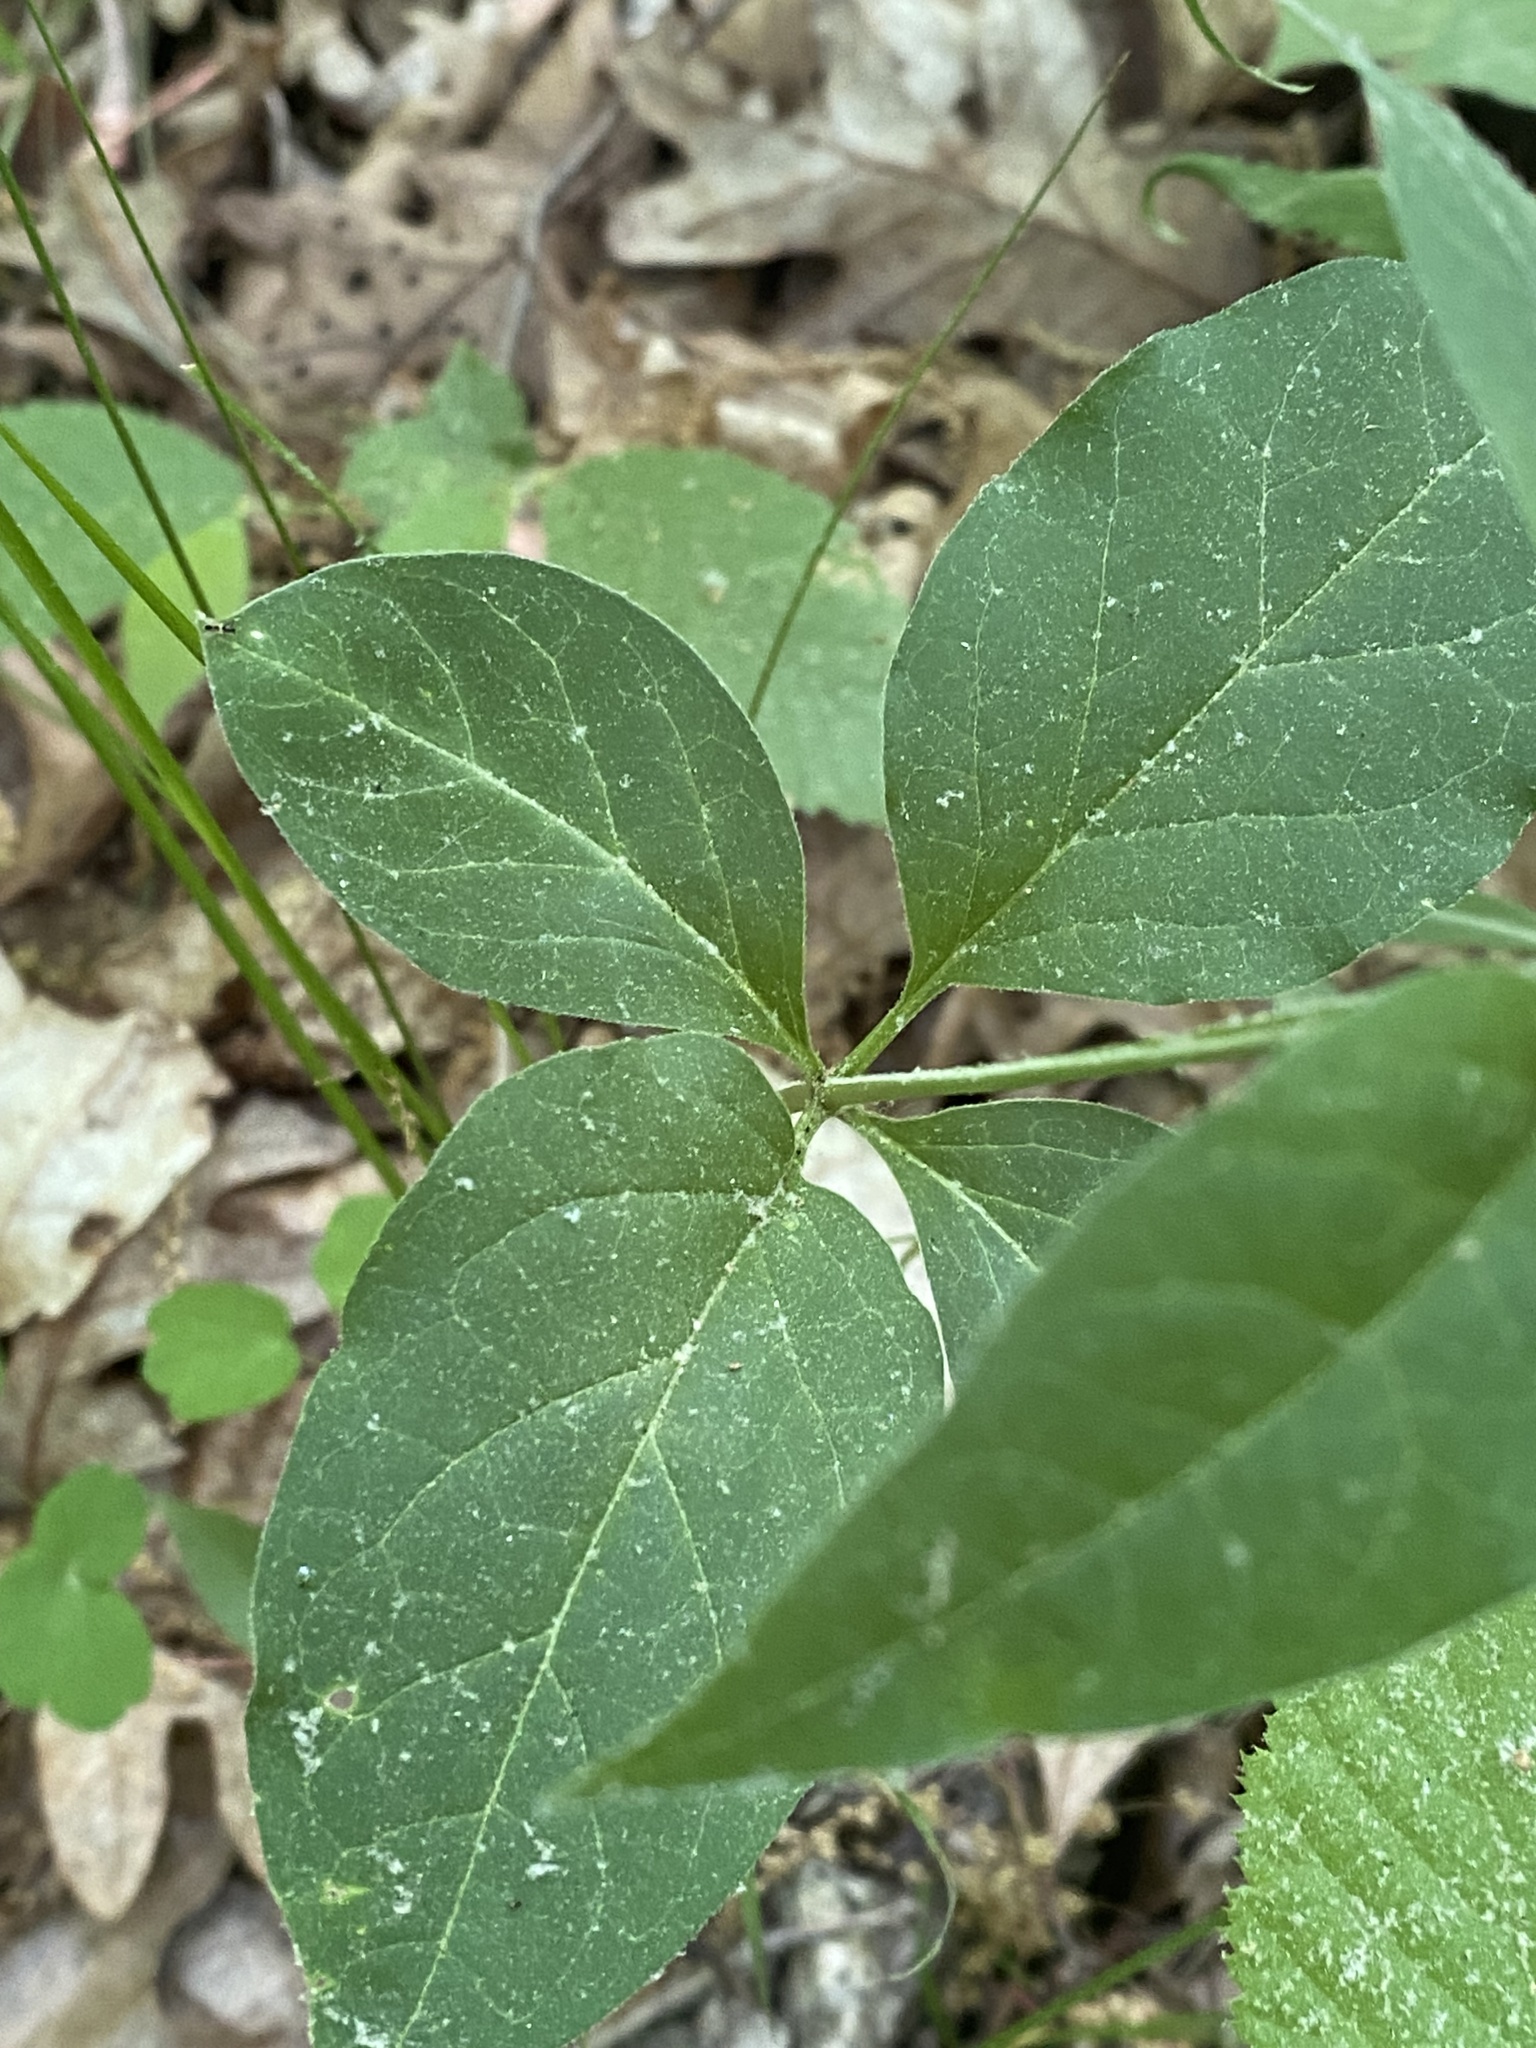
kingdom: Plantae
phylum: Tracheophyta
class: Magnoliopsida
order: Gentianales
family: Apocynaceae
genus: Asclepias
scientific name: Asclepias quadrifolia
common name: Whorled milkweed
